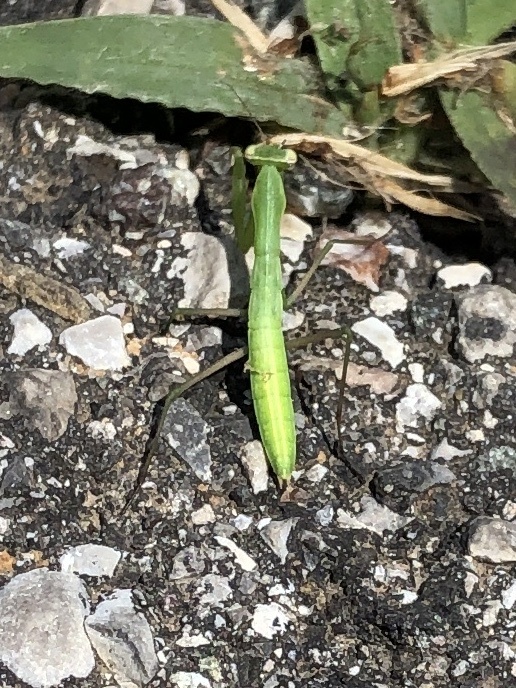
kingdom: Animalia
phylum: Arthropoda
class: Insecta
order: Mantodea
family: Mantidae
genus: Mantis
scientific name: Mantis religiosa
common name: Praying mantis
